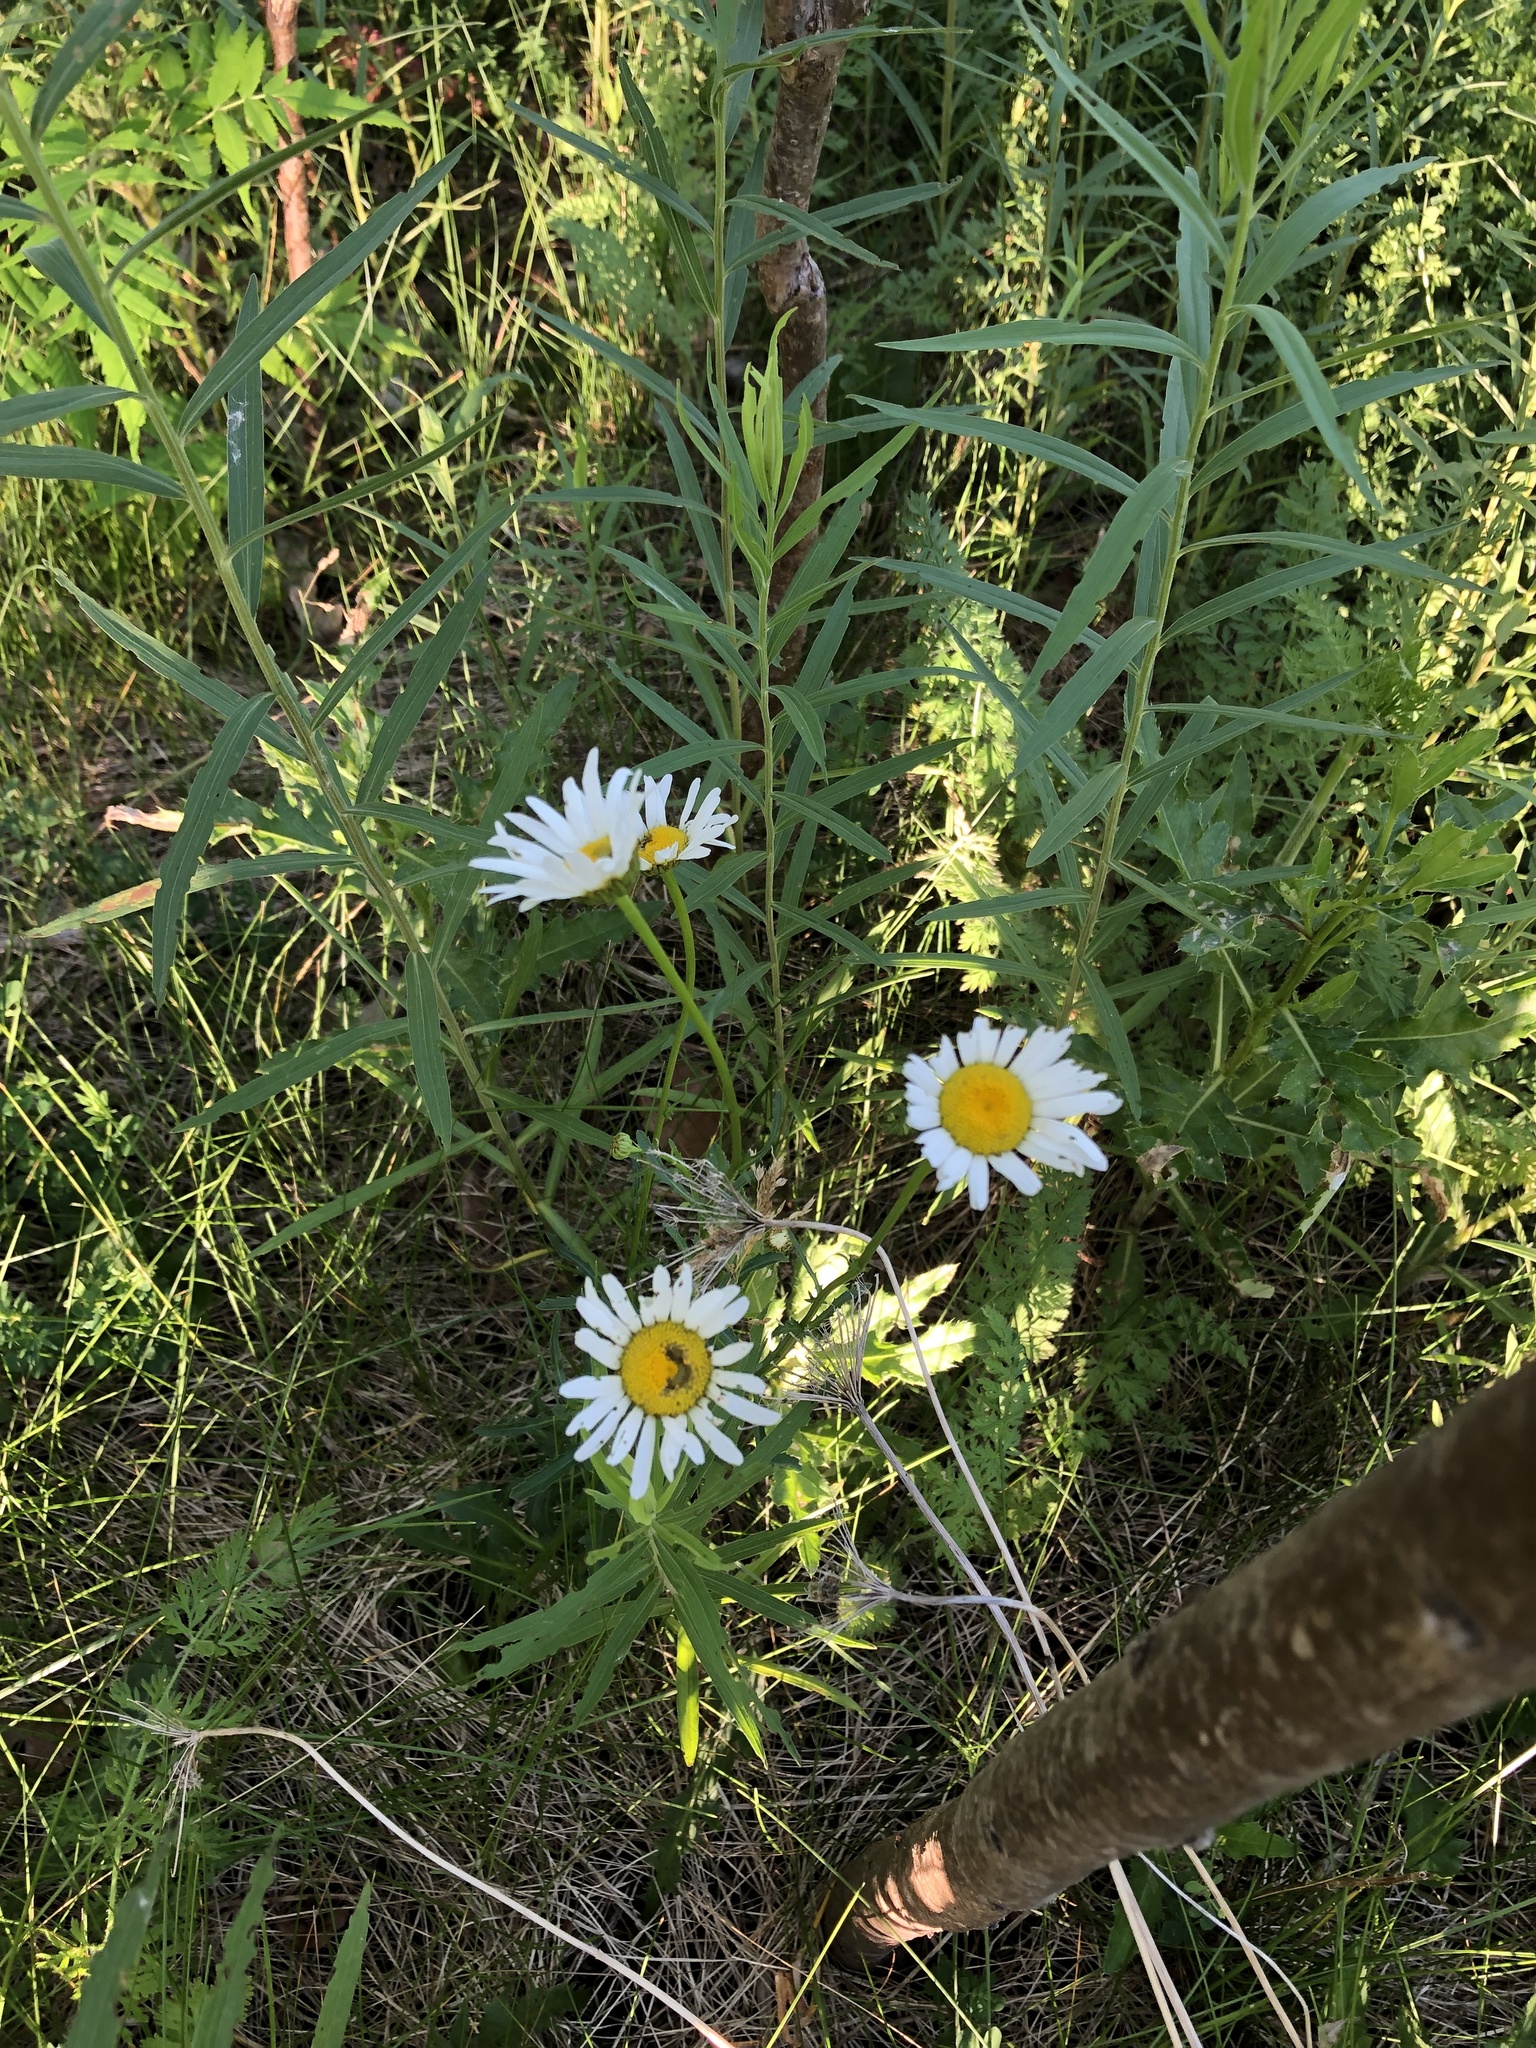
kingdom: Plantae
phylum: Tracheophyta
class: Magnoliopsida
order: Asterales
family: Asteraceae
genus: Leucanthemum
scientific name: Leucanthemum vulgare
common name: Oxeye daisy
